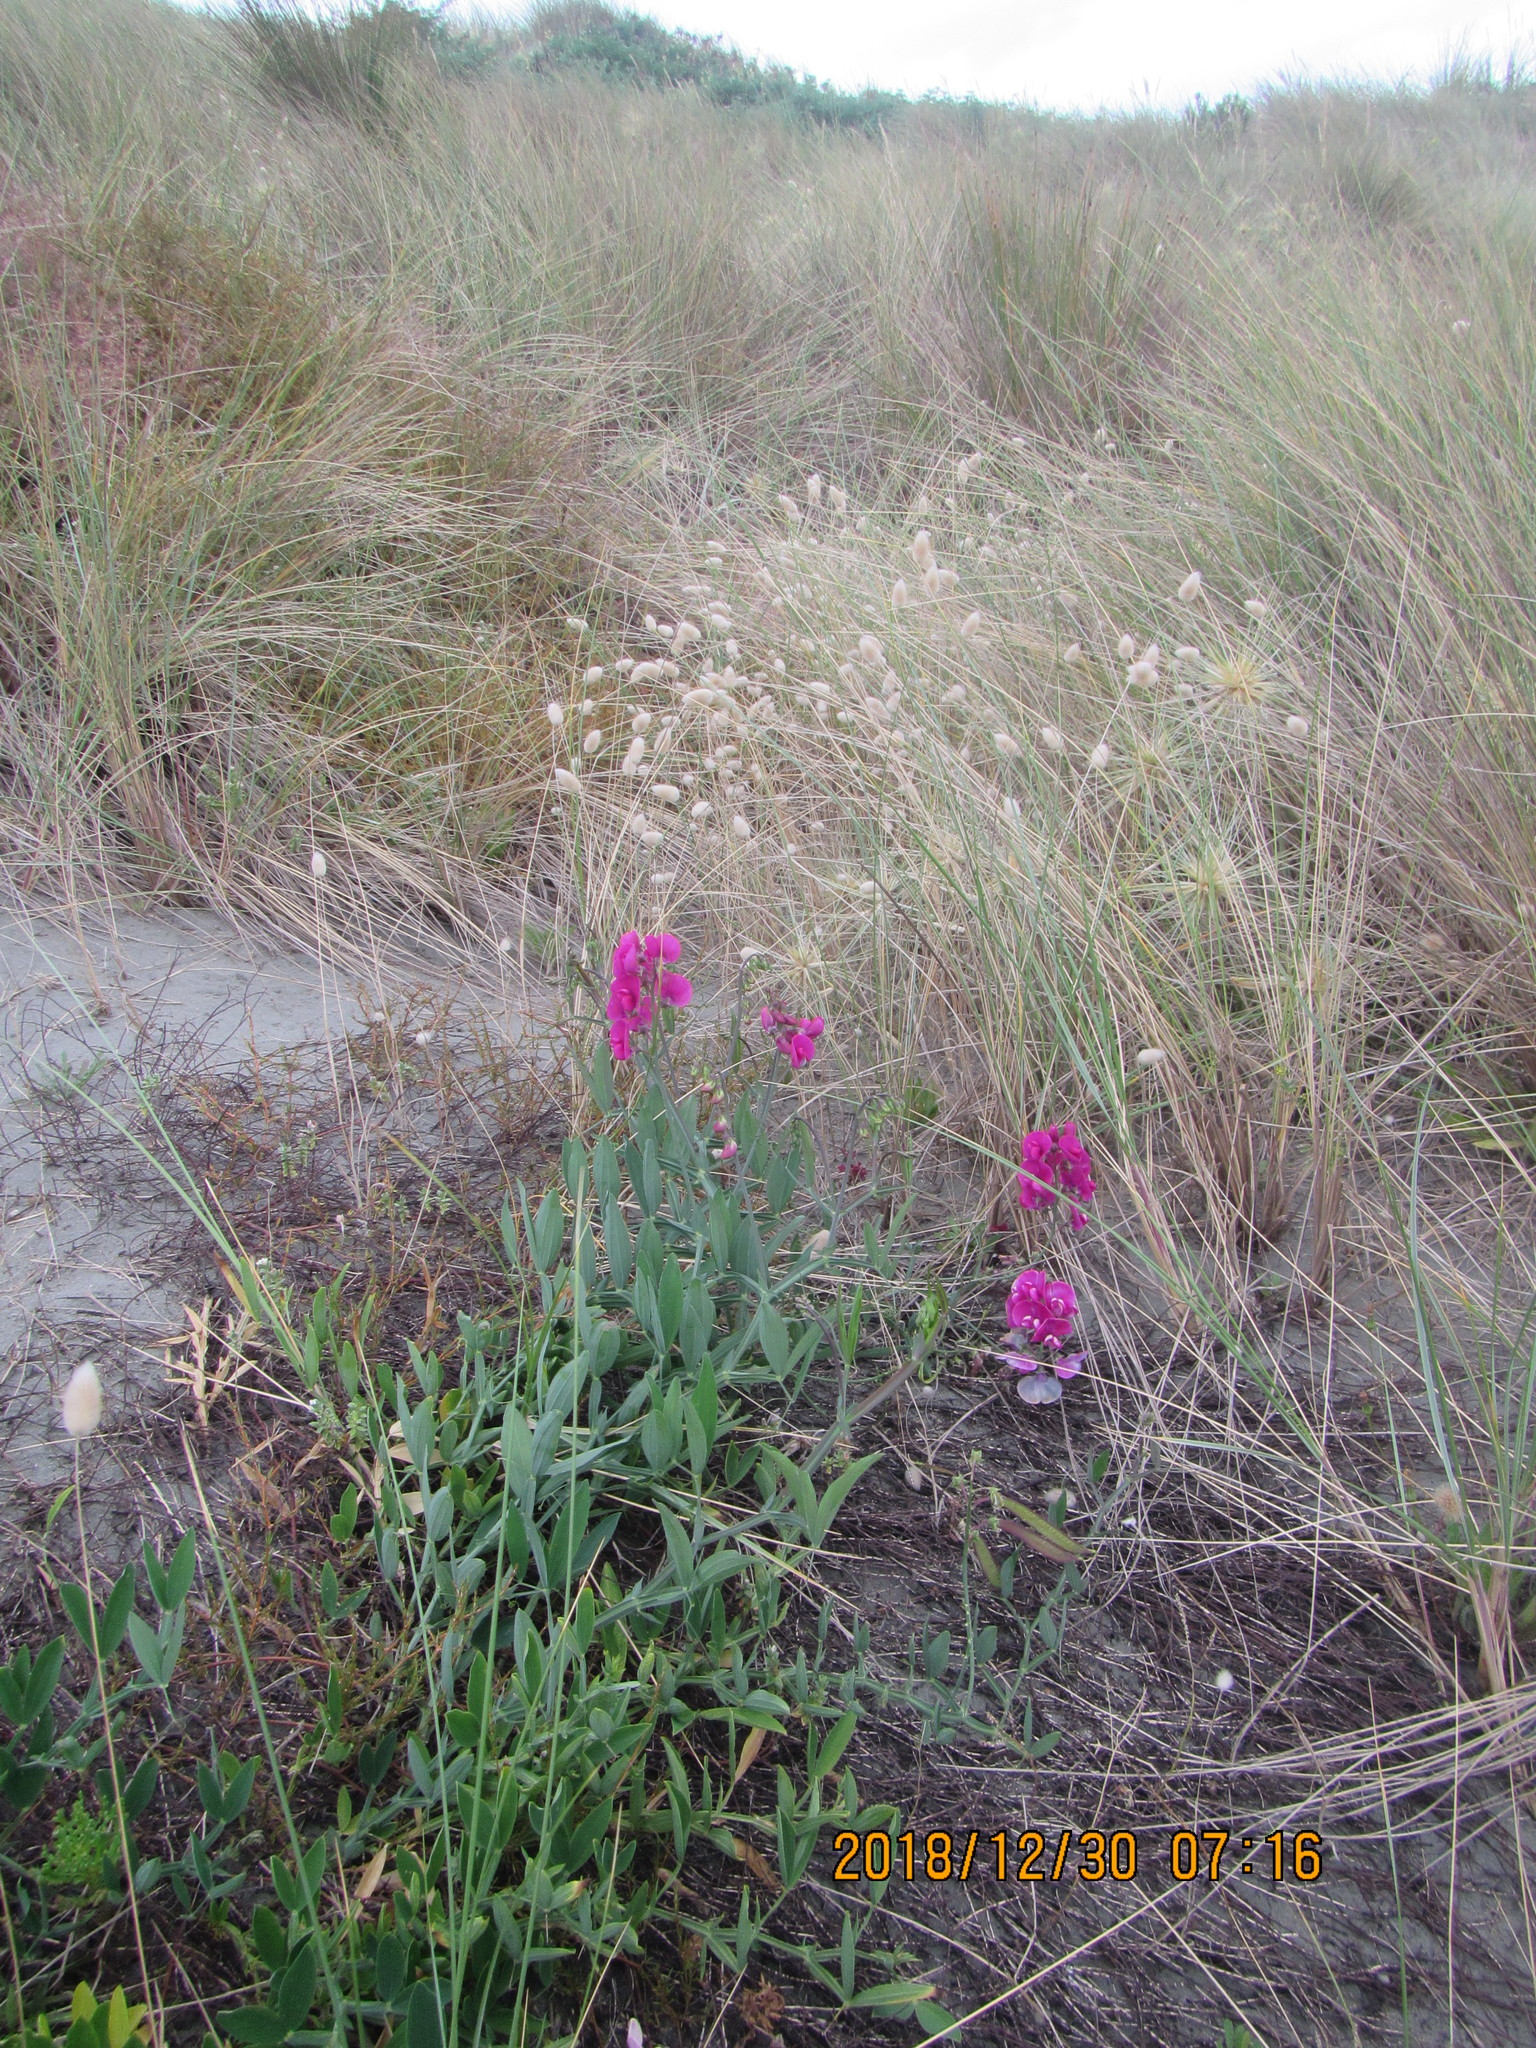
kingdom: Plantae
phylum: Tracheophyta
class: Magnoliopsida
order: Fabales
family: Fabaceae
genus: Lathyrus
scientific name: Lathyrus latifolius
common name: Perennial pea
